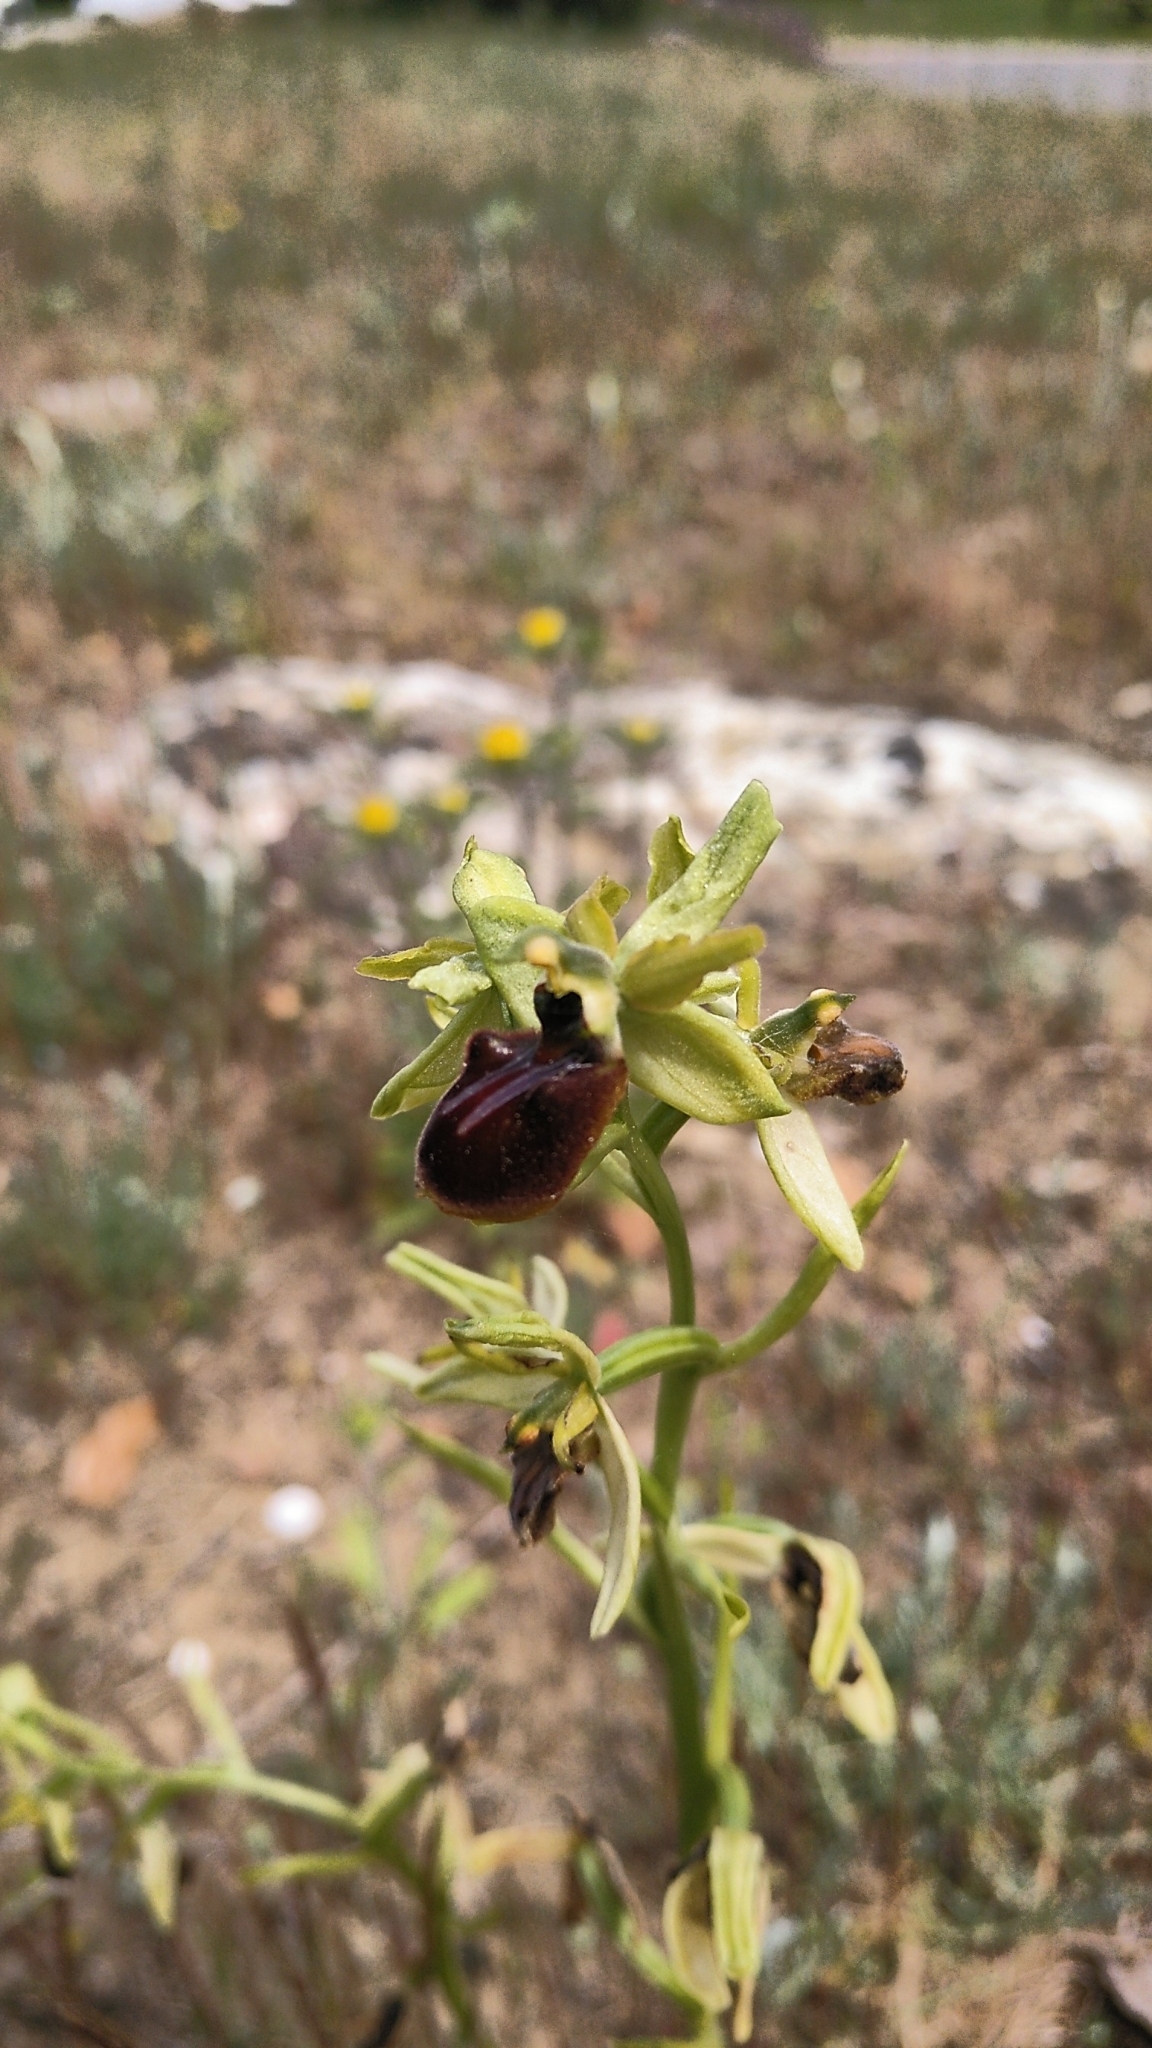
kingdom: Plantae
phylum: Tracheophyta
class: Liliopsida
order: Asparagales
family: Orchidaceae
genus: Ophrys
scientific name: Ophrys sphegodes
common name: Early spider-orchid
